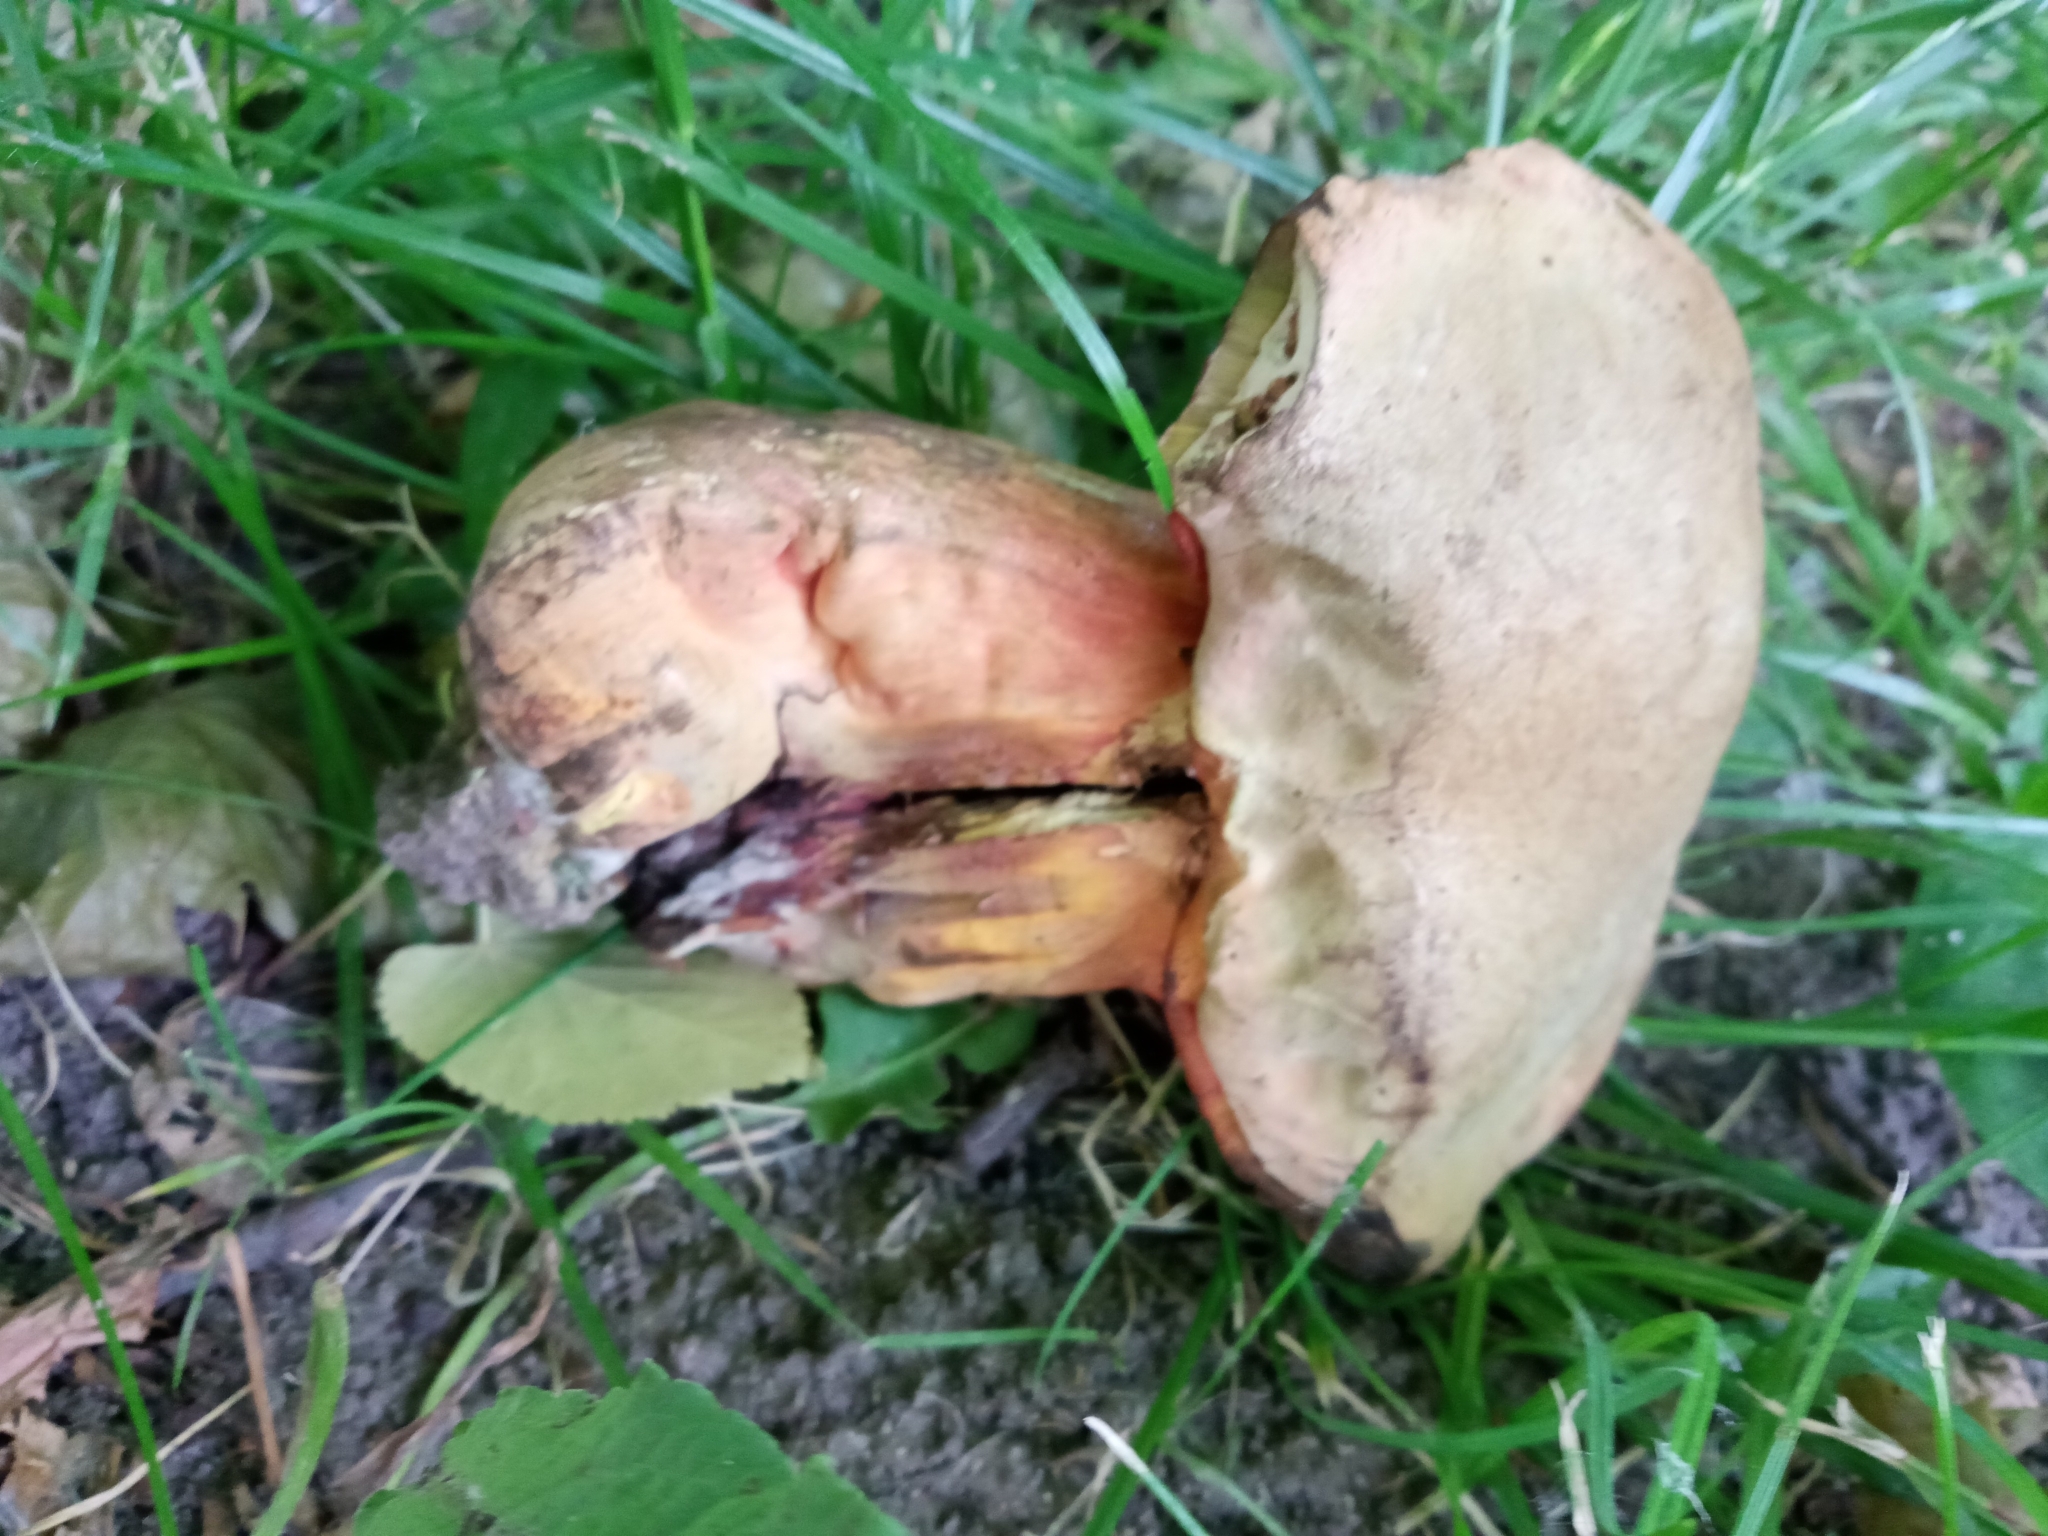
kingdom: Fungi
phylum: Basidiomycota
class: Agaricomycetes
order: Boletales
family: Boletaceae
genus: Suillellus
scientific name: Suillellus luridus
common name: Lurid bolete
